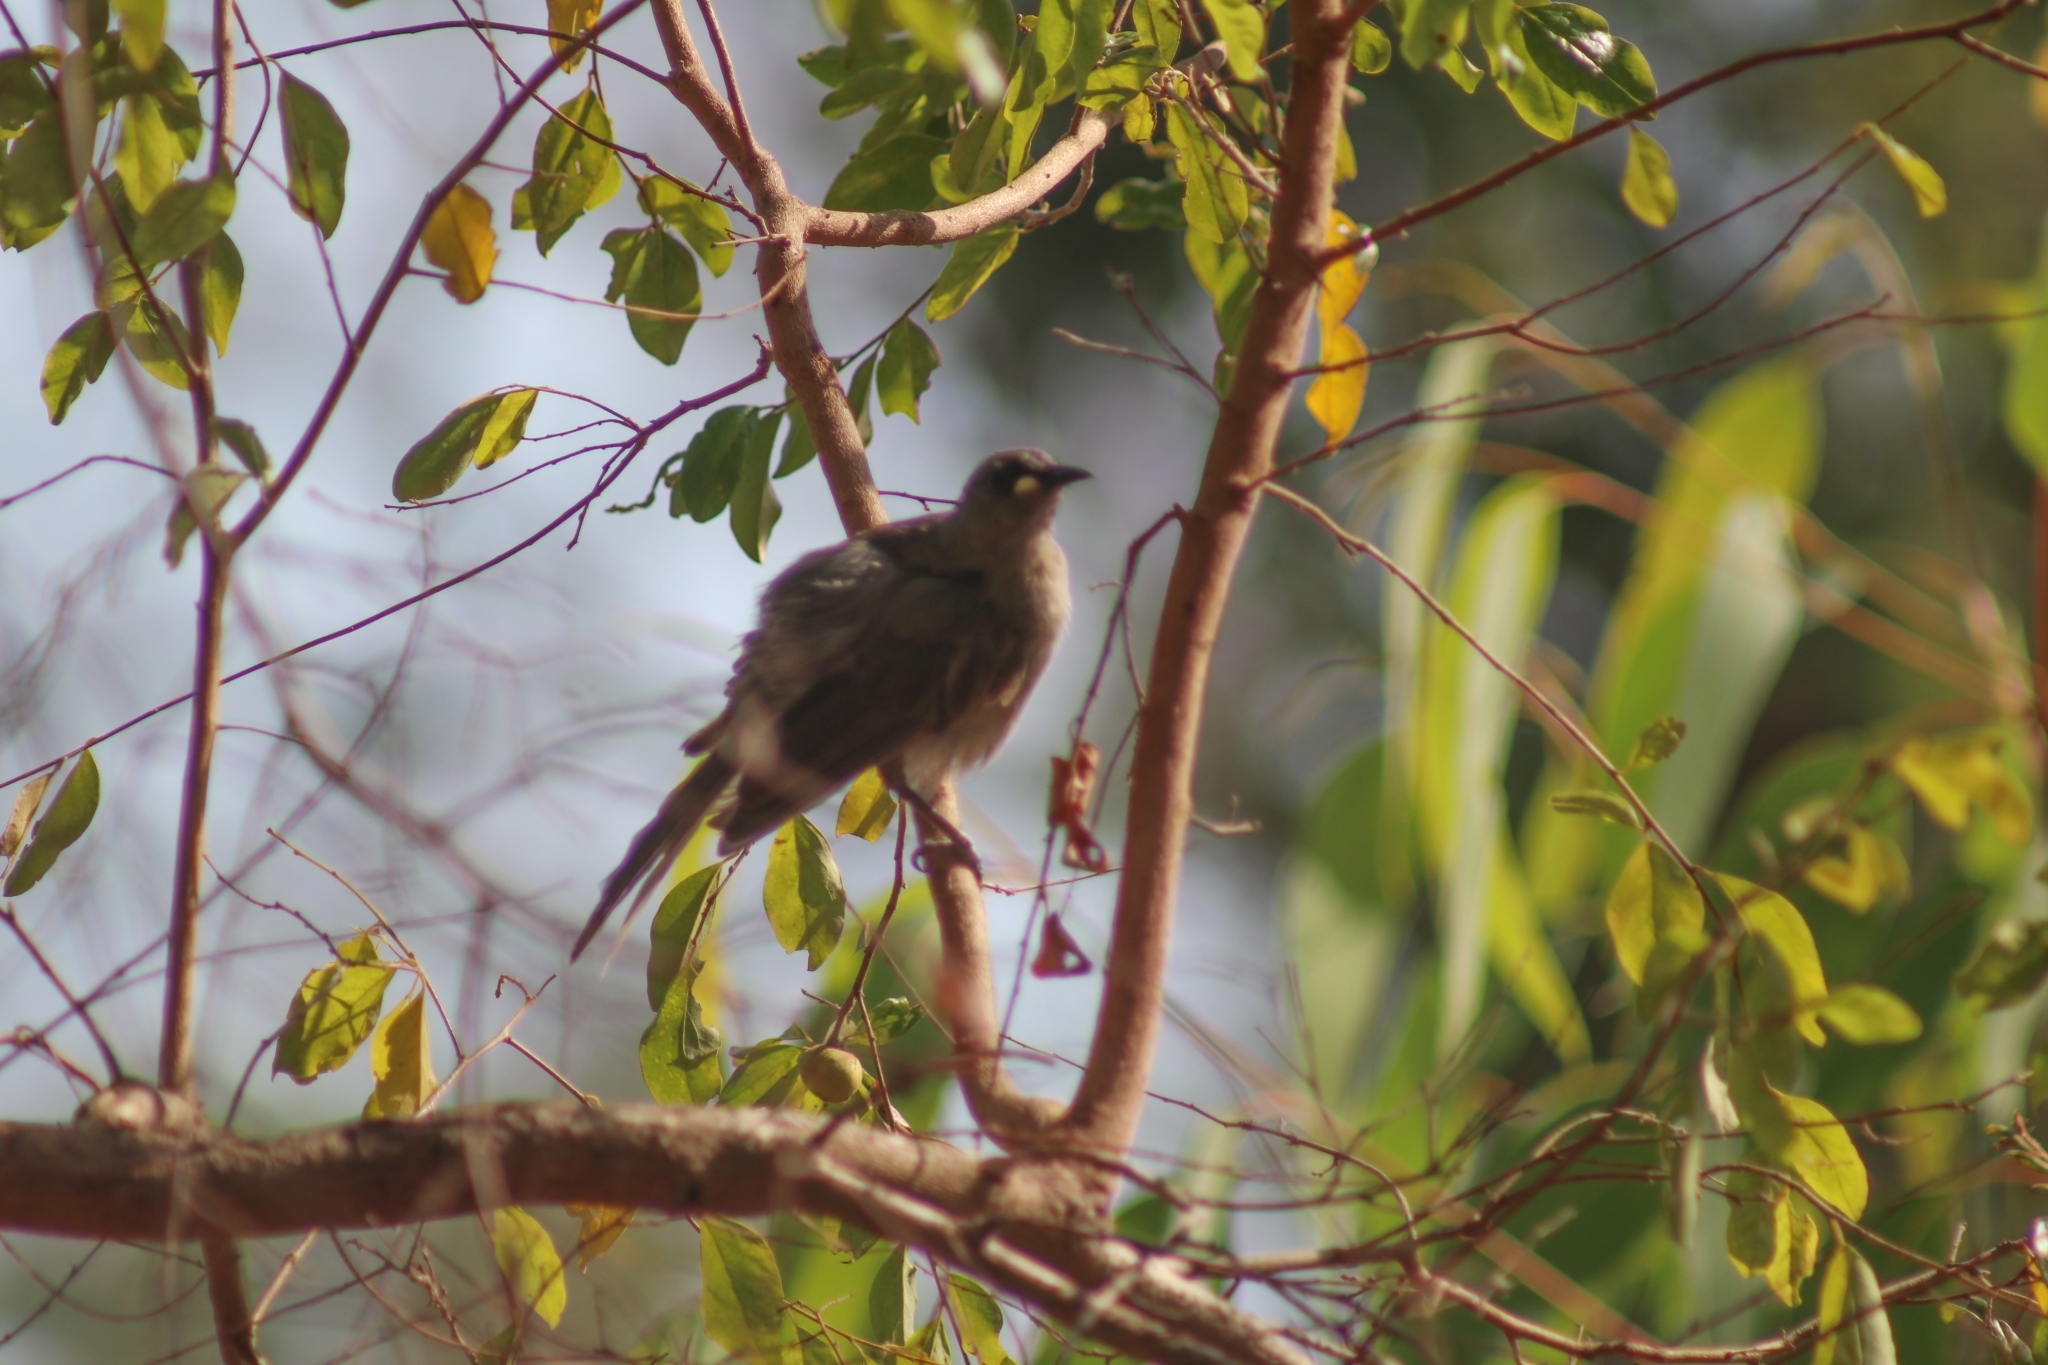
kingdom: Animalia
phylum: Chordata
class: Aves
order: Passeriformes
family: Meliphagidae
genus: Stomiopera
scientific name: Stomiopera unicolor
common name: White-gaped honeyeater
